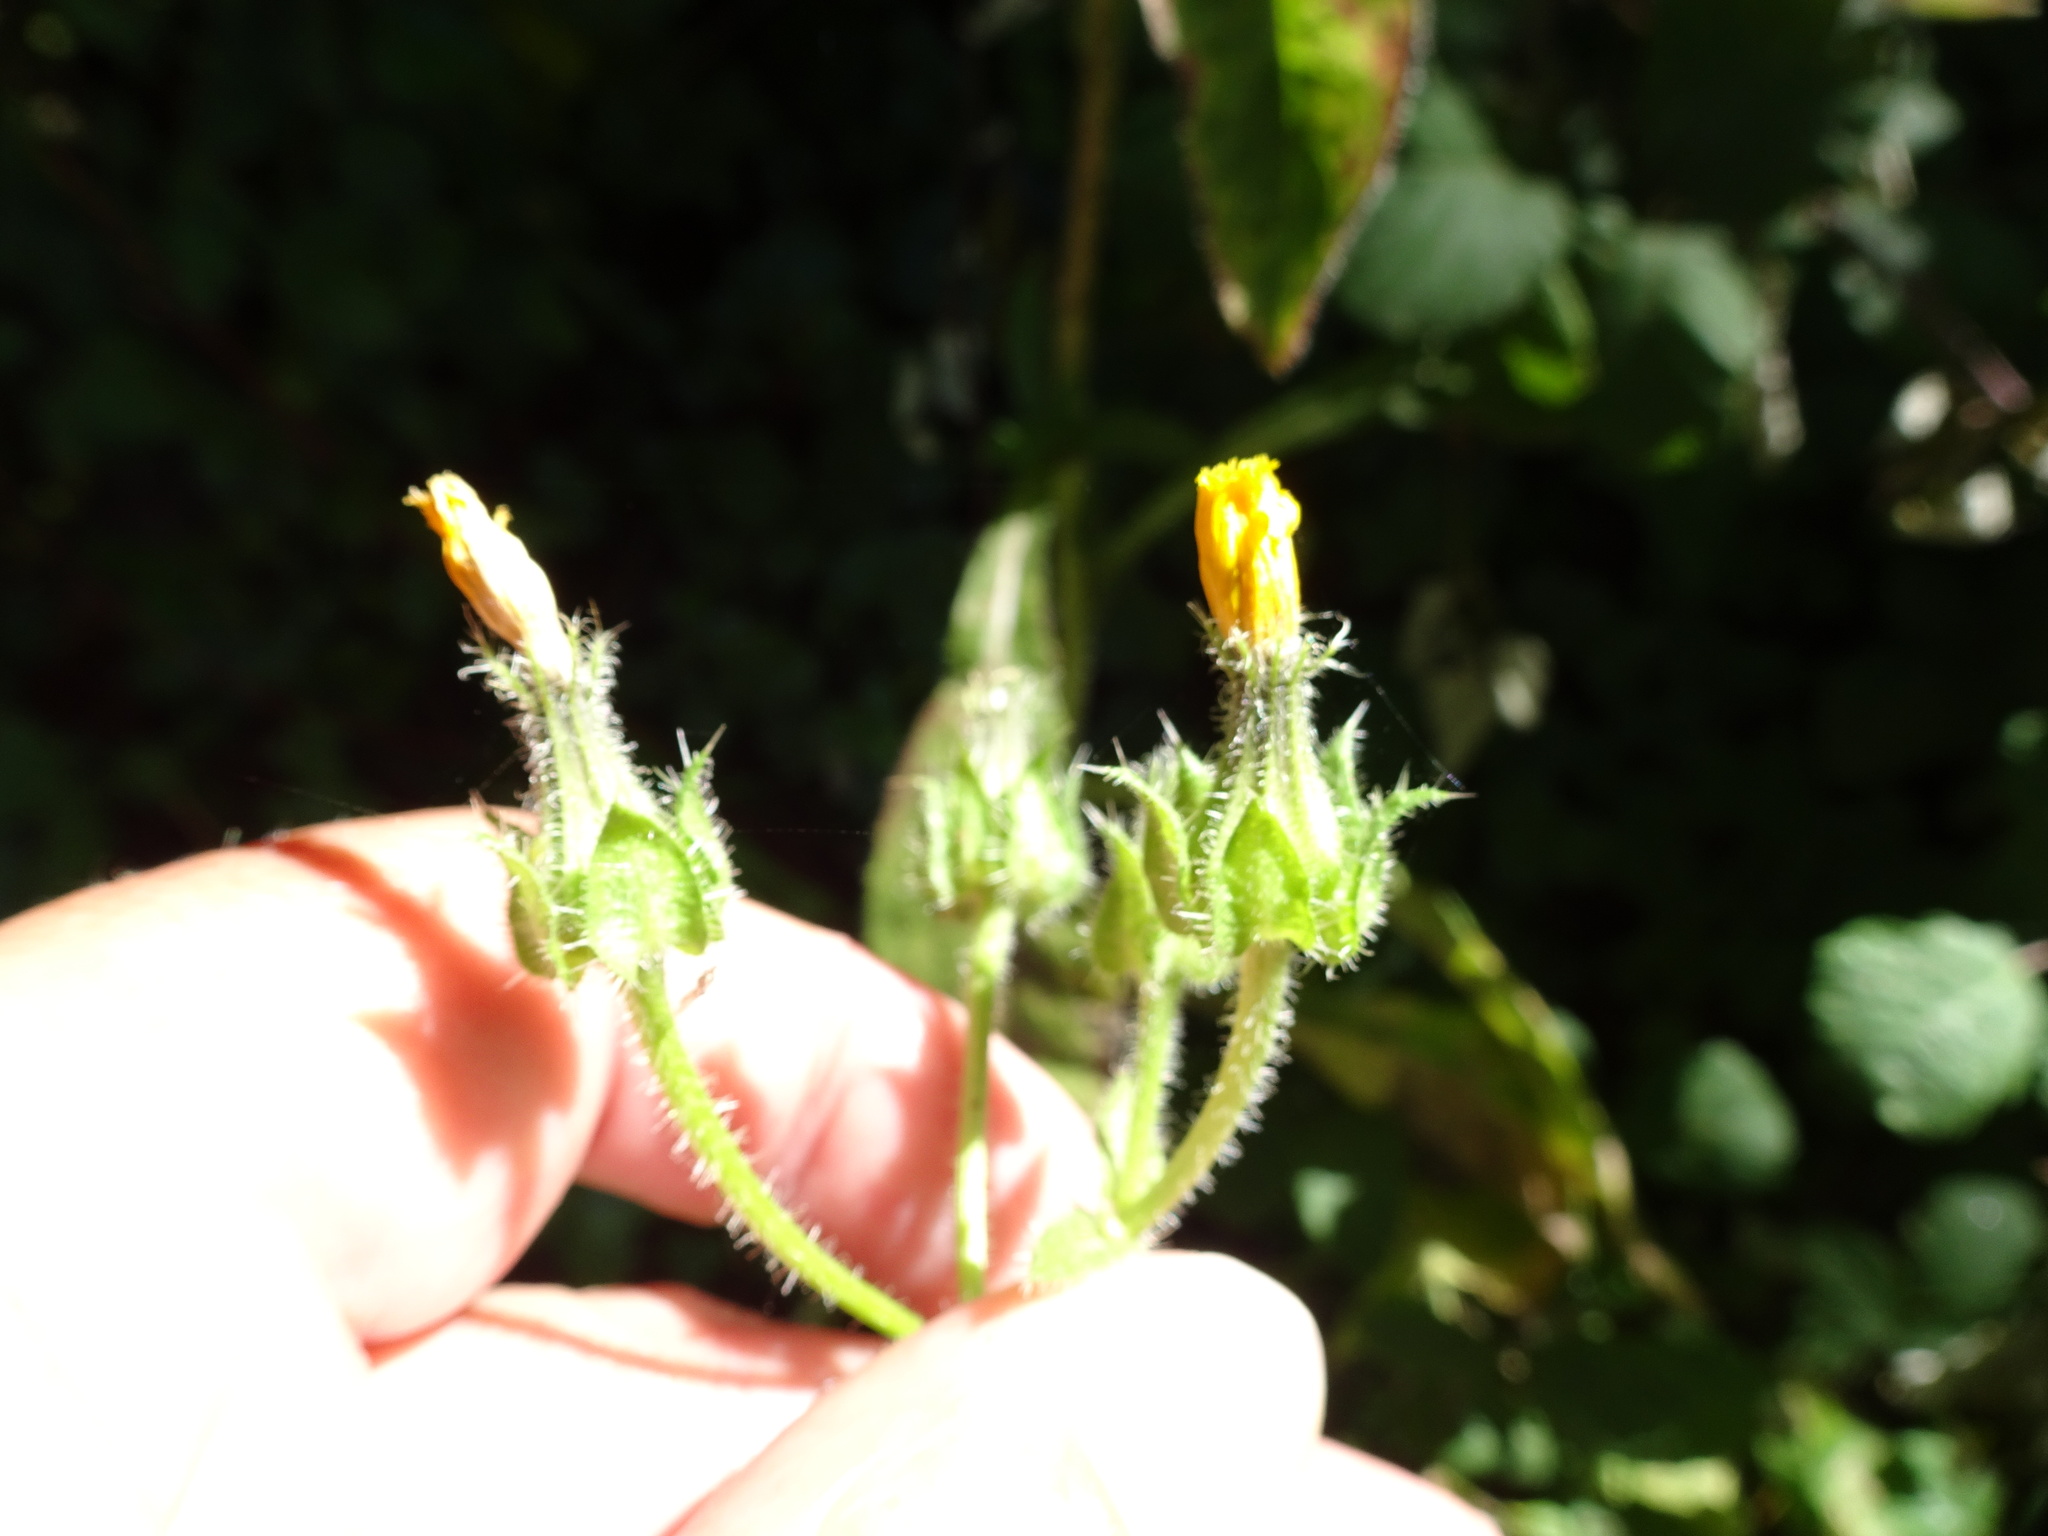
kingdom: Plantae
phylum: Tracheophyta
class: Magnoliopsida
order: Asterales
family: Asteraceae
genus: Helminthotheca
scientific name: Helminthotheca echioides
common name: Ox-tongue
